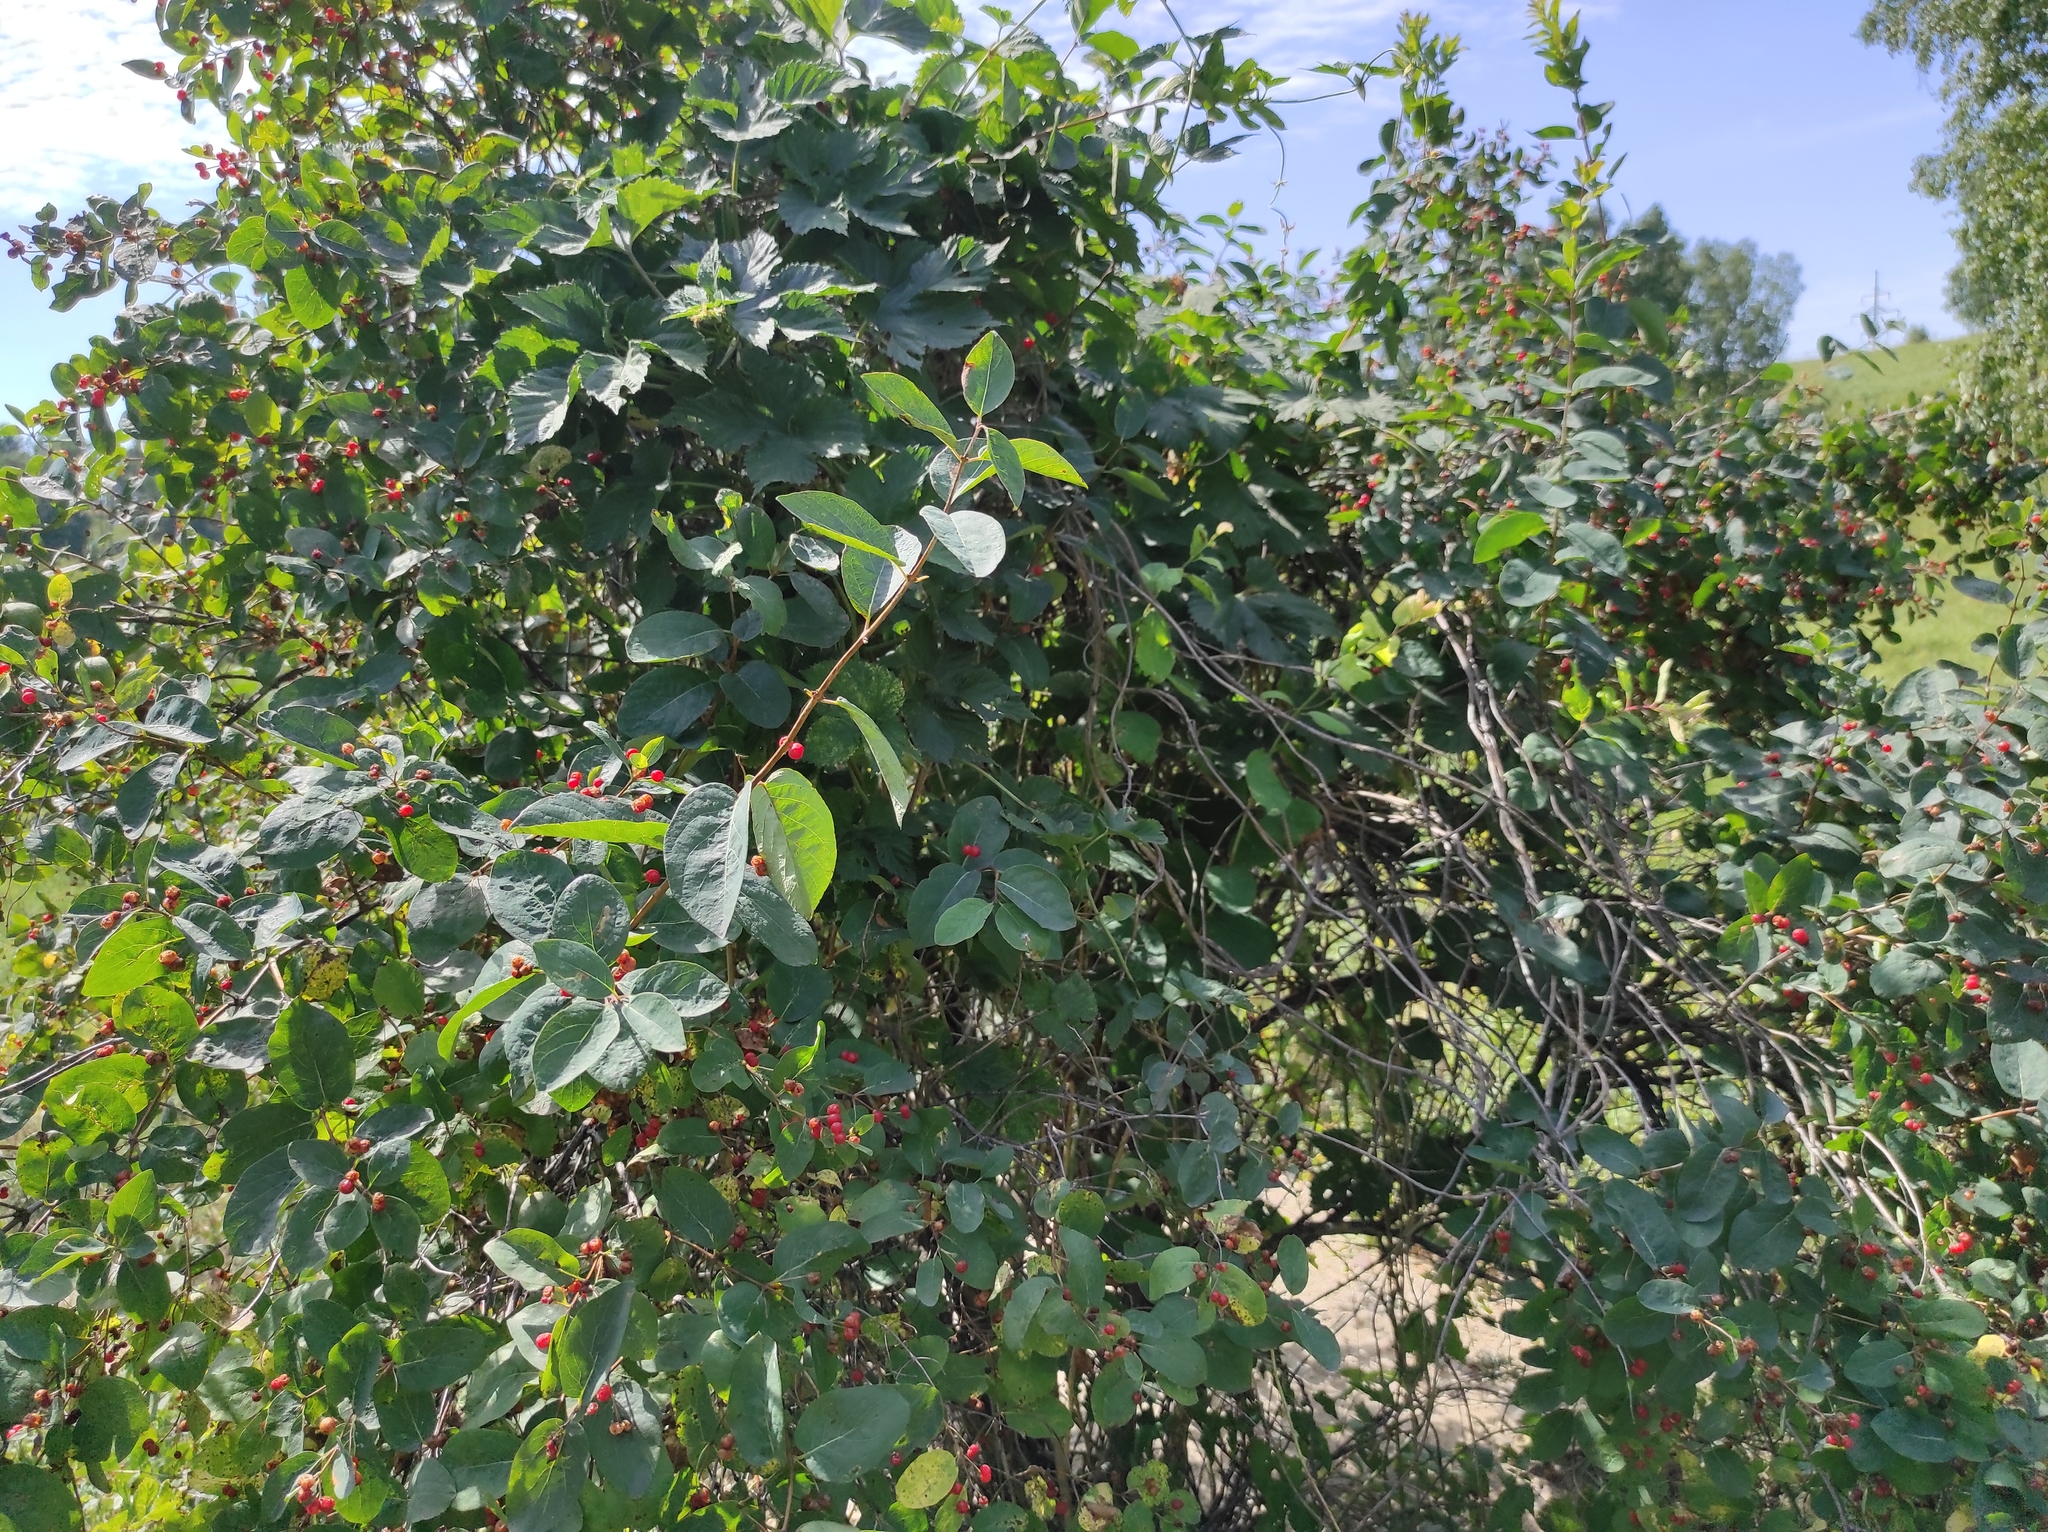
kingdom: Plantae
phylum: Tracheophyta
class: Magnoliopsida
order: Dipsacales
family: Caprifoliaceae
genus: Lonicera
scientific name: Lonicera tatarica
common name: Tatarian honeysuckle
